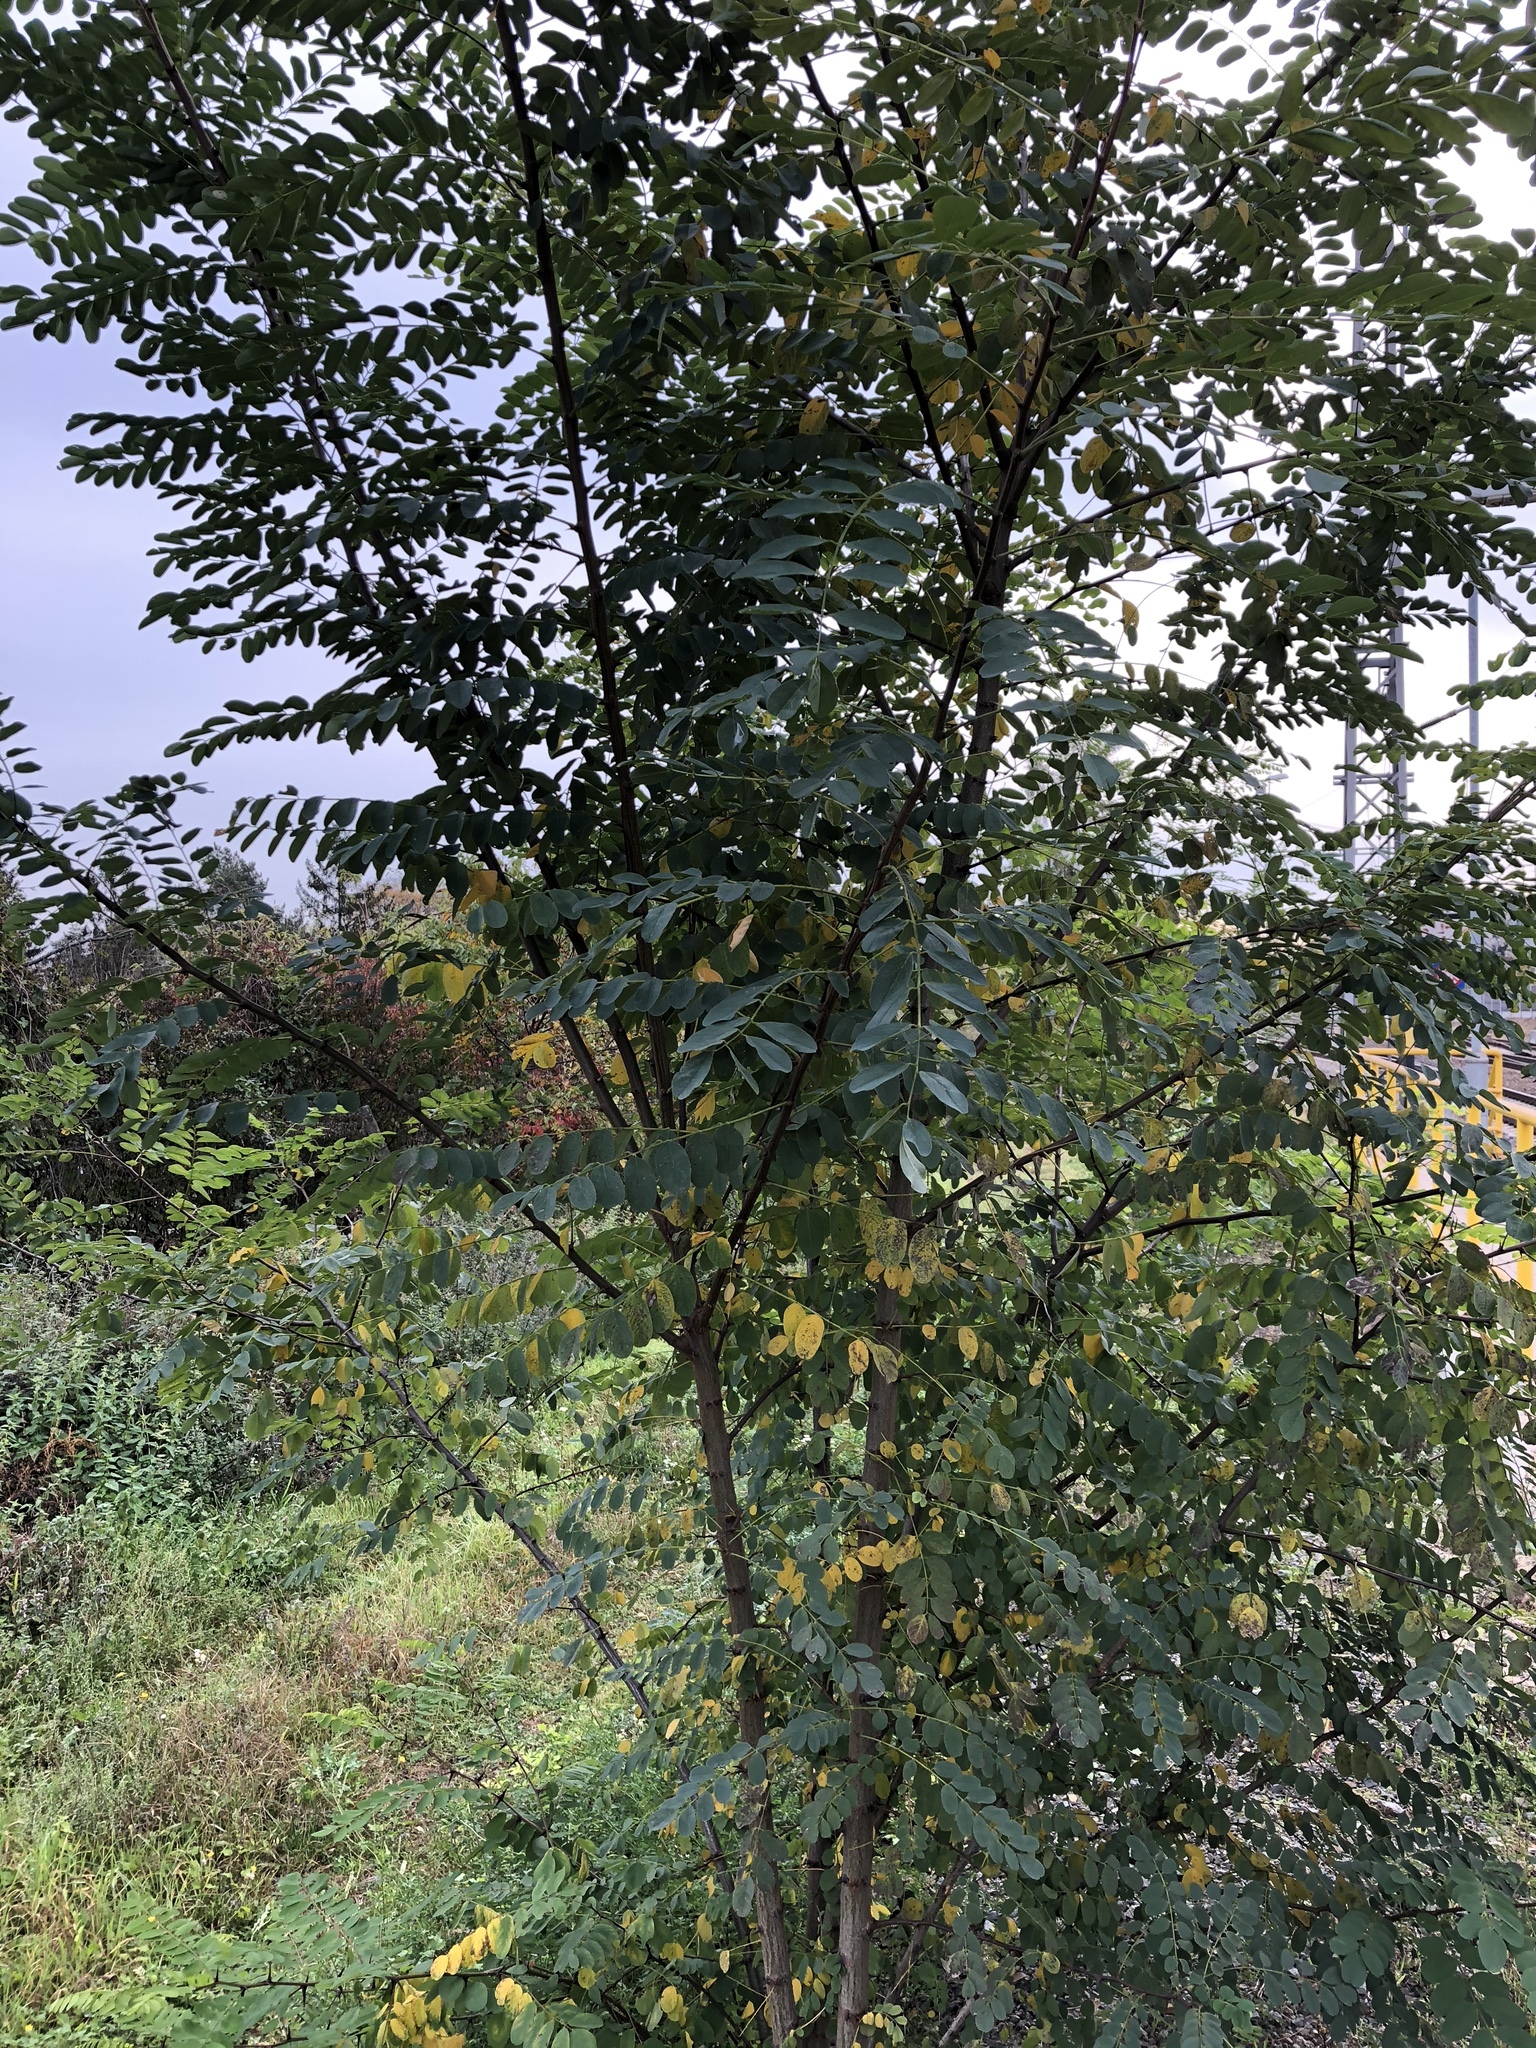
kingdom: Plantae
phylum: Tracheophyta
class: Magnoliopsida
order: Fabales
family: Fabaceae
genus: Robinia
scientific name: Robinia pseudoacacia
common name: Black locust
